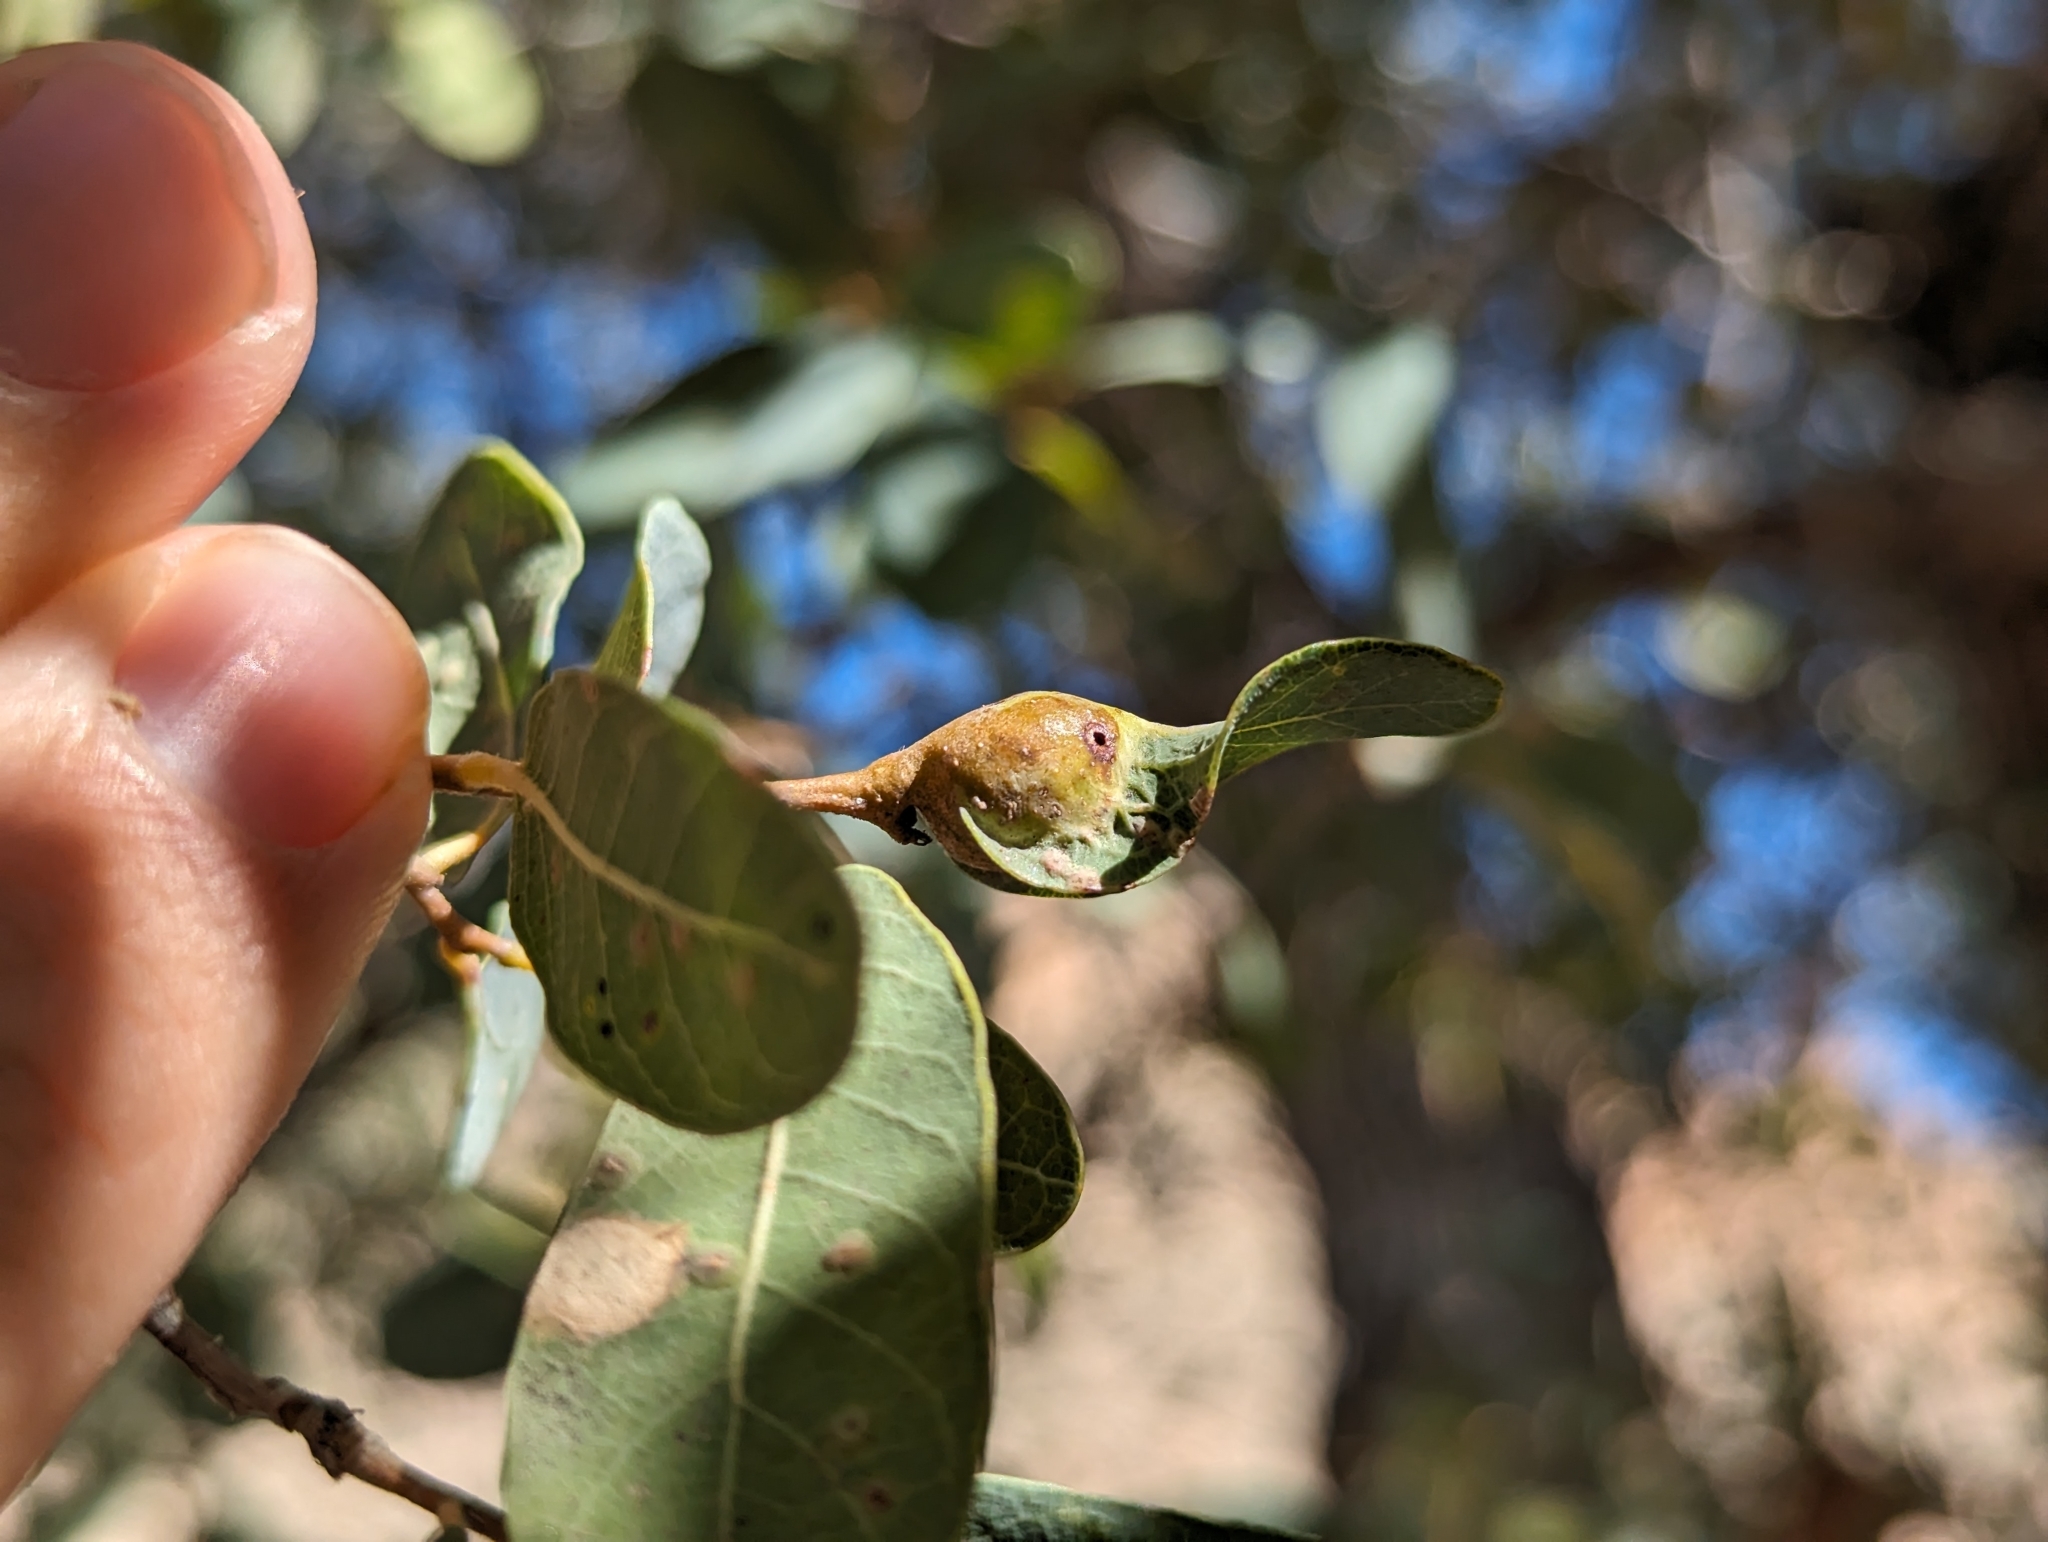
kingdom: Animalia
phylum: Arthropoda
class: Insecta
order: Hymenoptera
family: Cynipidae
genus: Andricus
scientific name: Andricus
